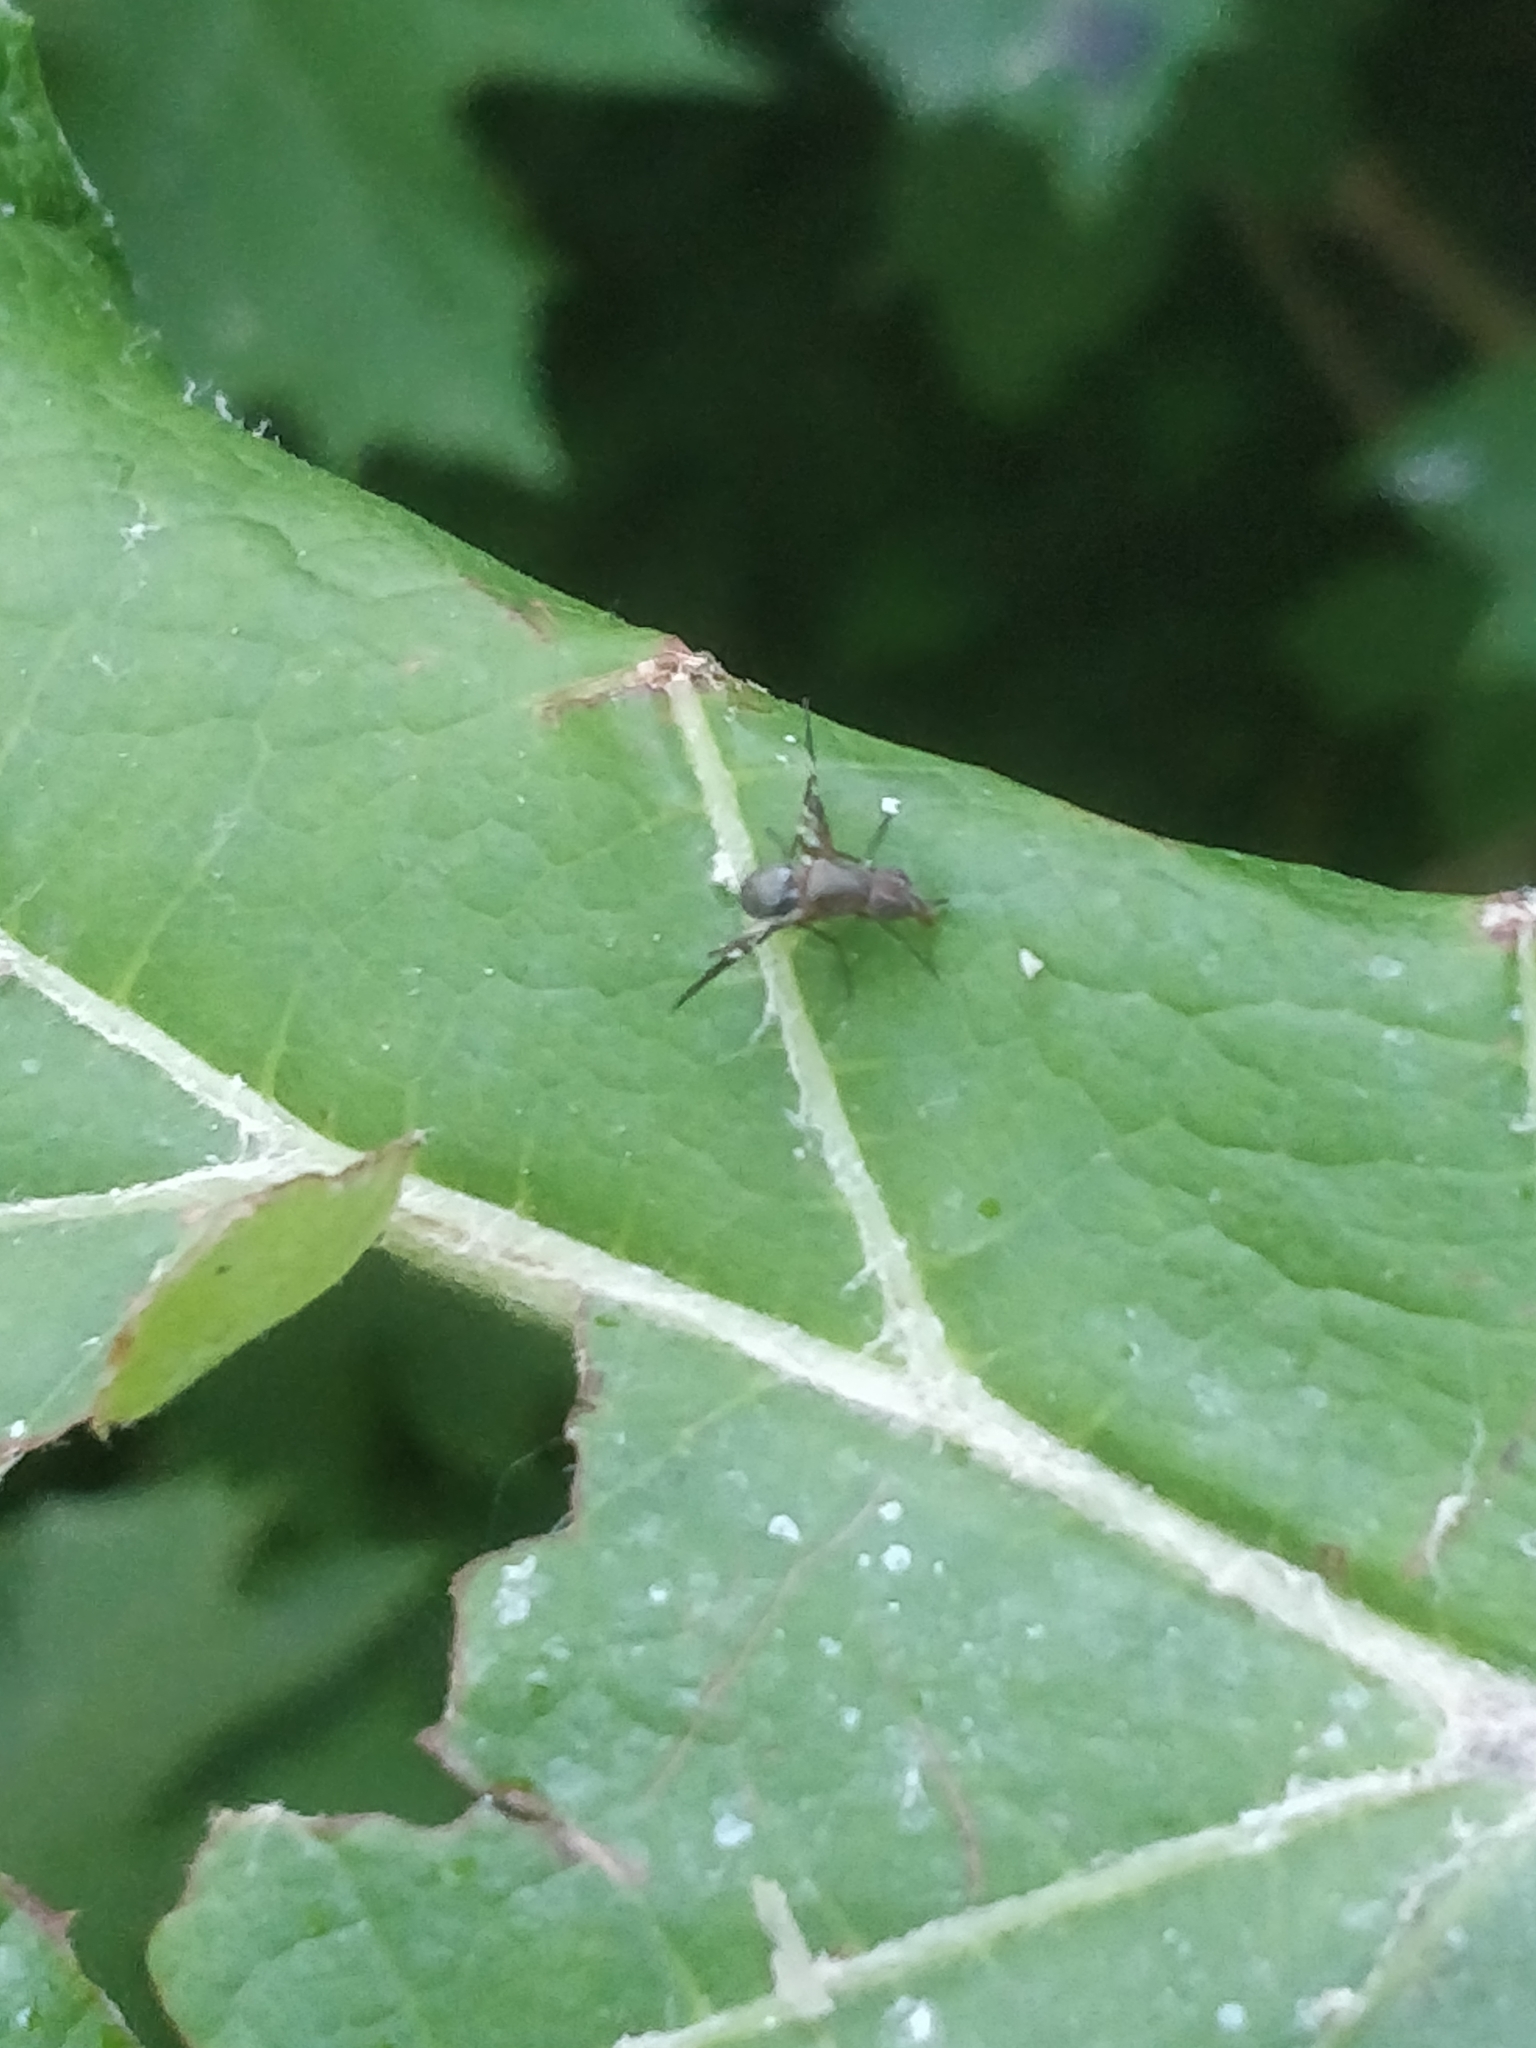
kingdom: Animalia
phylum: Arthropoda
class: Insecta
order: Diptera
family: Ulidiidae
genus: Delphinia
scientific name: Delphinia picta
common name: Common picture-winged fly
